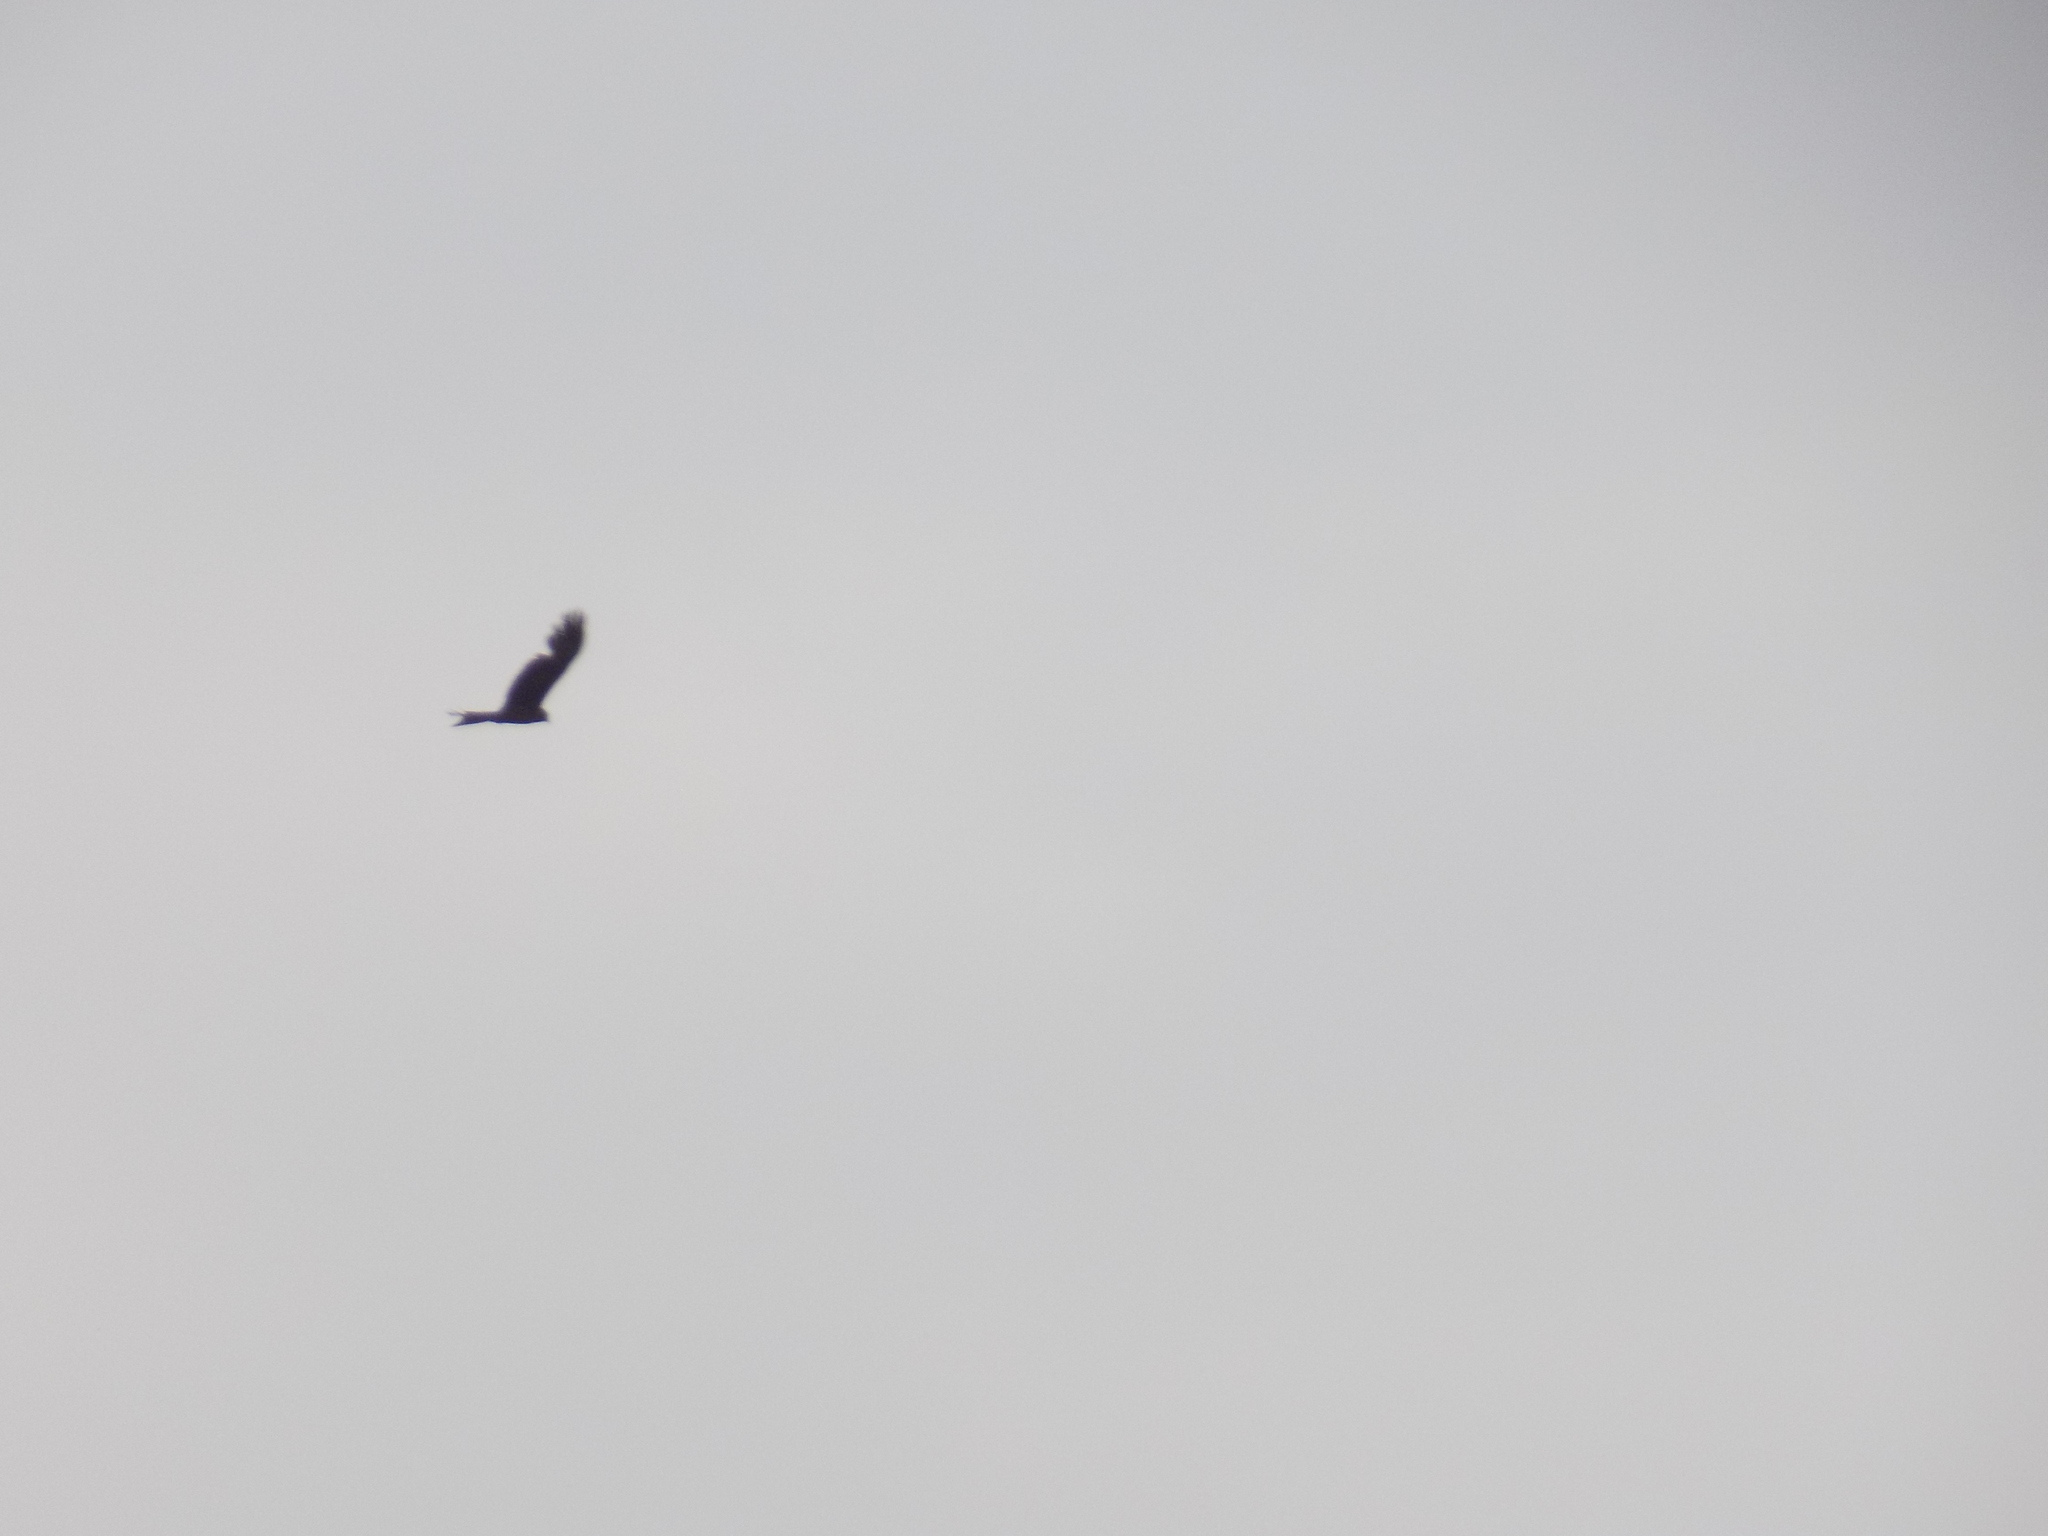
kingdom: Animalia
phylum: Chordata
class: Aves
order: Accipitriformes
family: Accipitridae
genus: Milvus
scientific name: Milvus migrans
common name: Black kite
